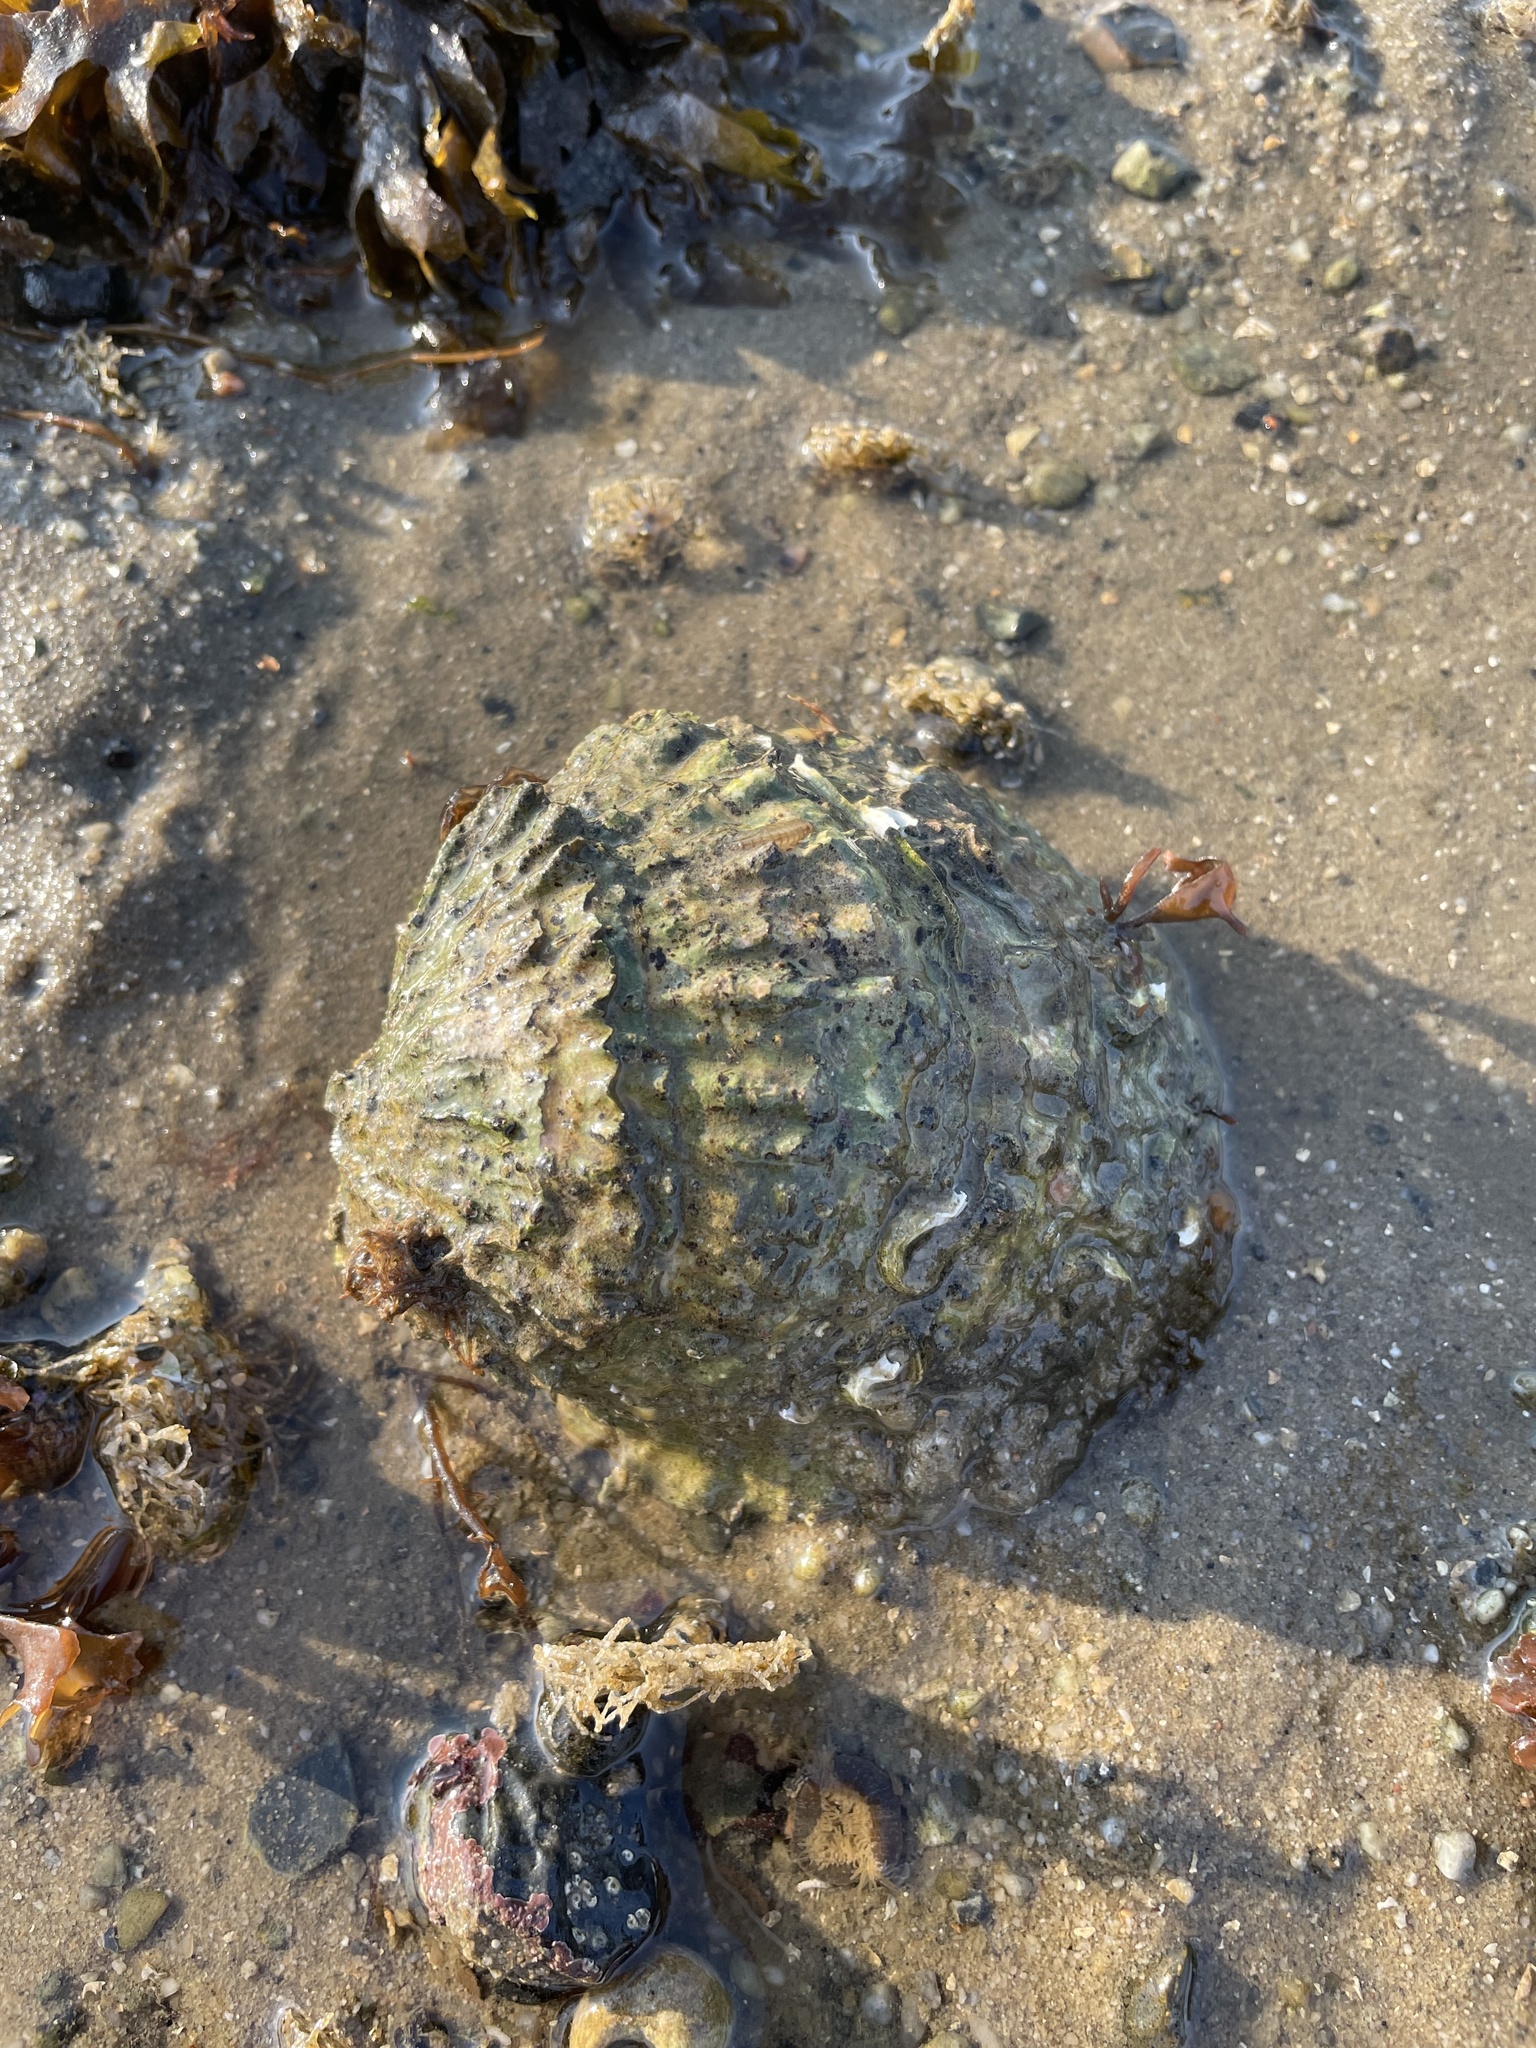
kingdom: Animalia
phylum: Mollusca
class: Bivalvia
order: Ostreida
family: Ostreidae
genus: Ostrea
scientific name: Ostrea edulis
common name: Flat oyster
